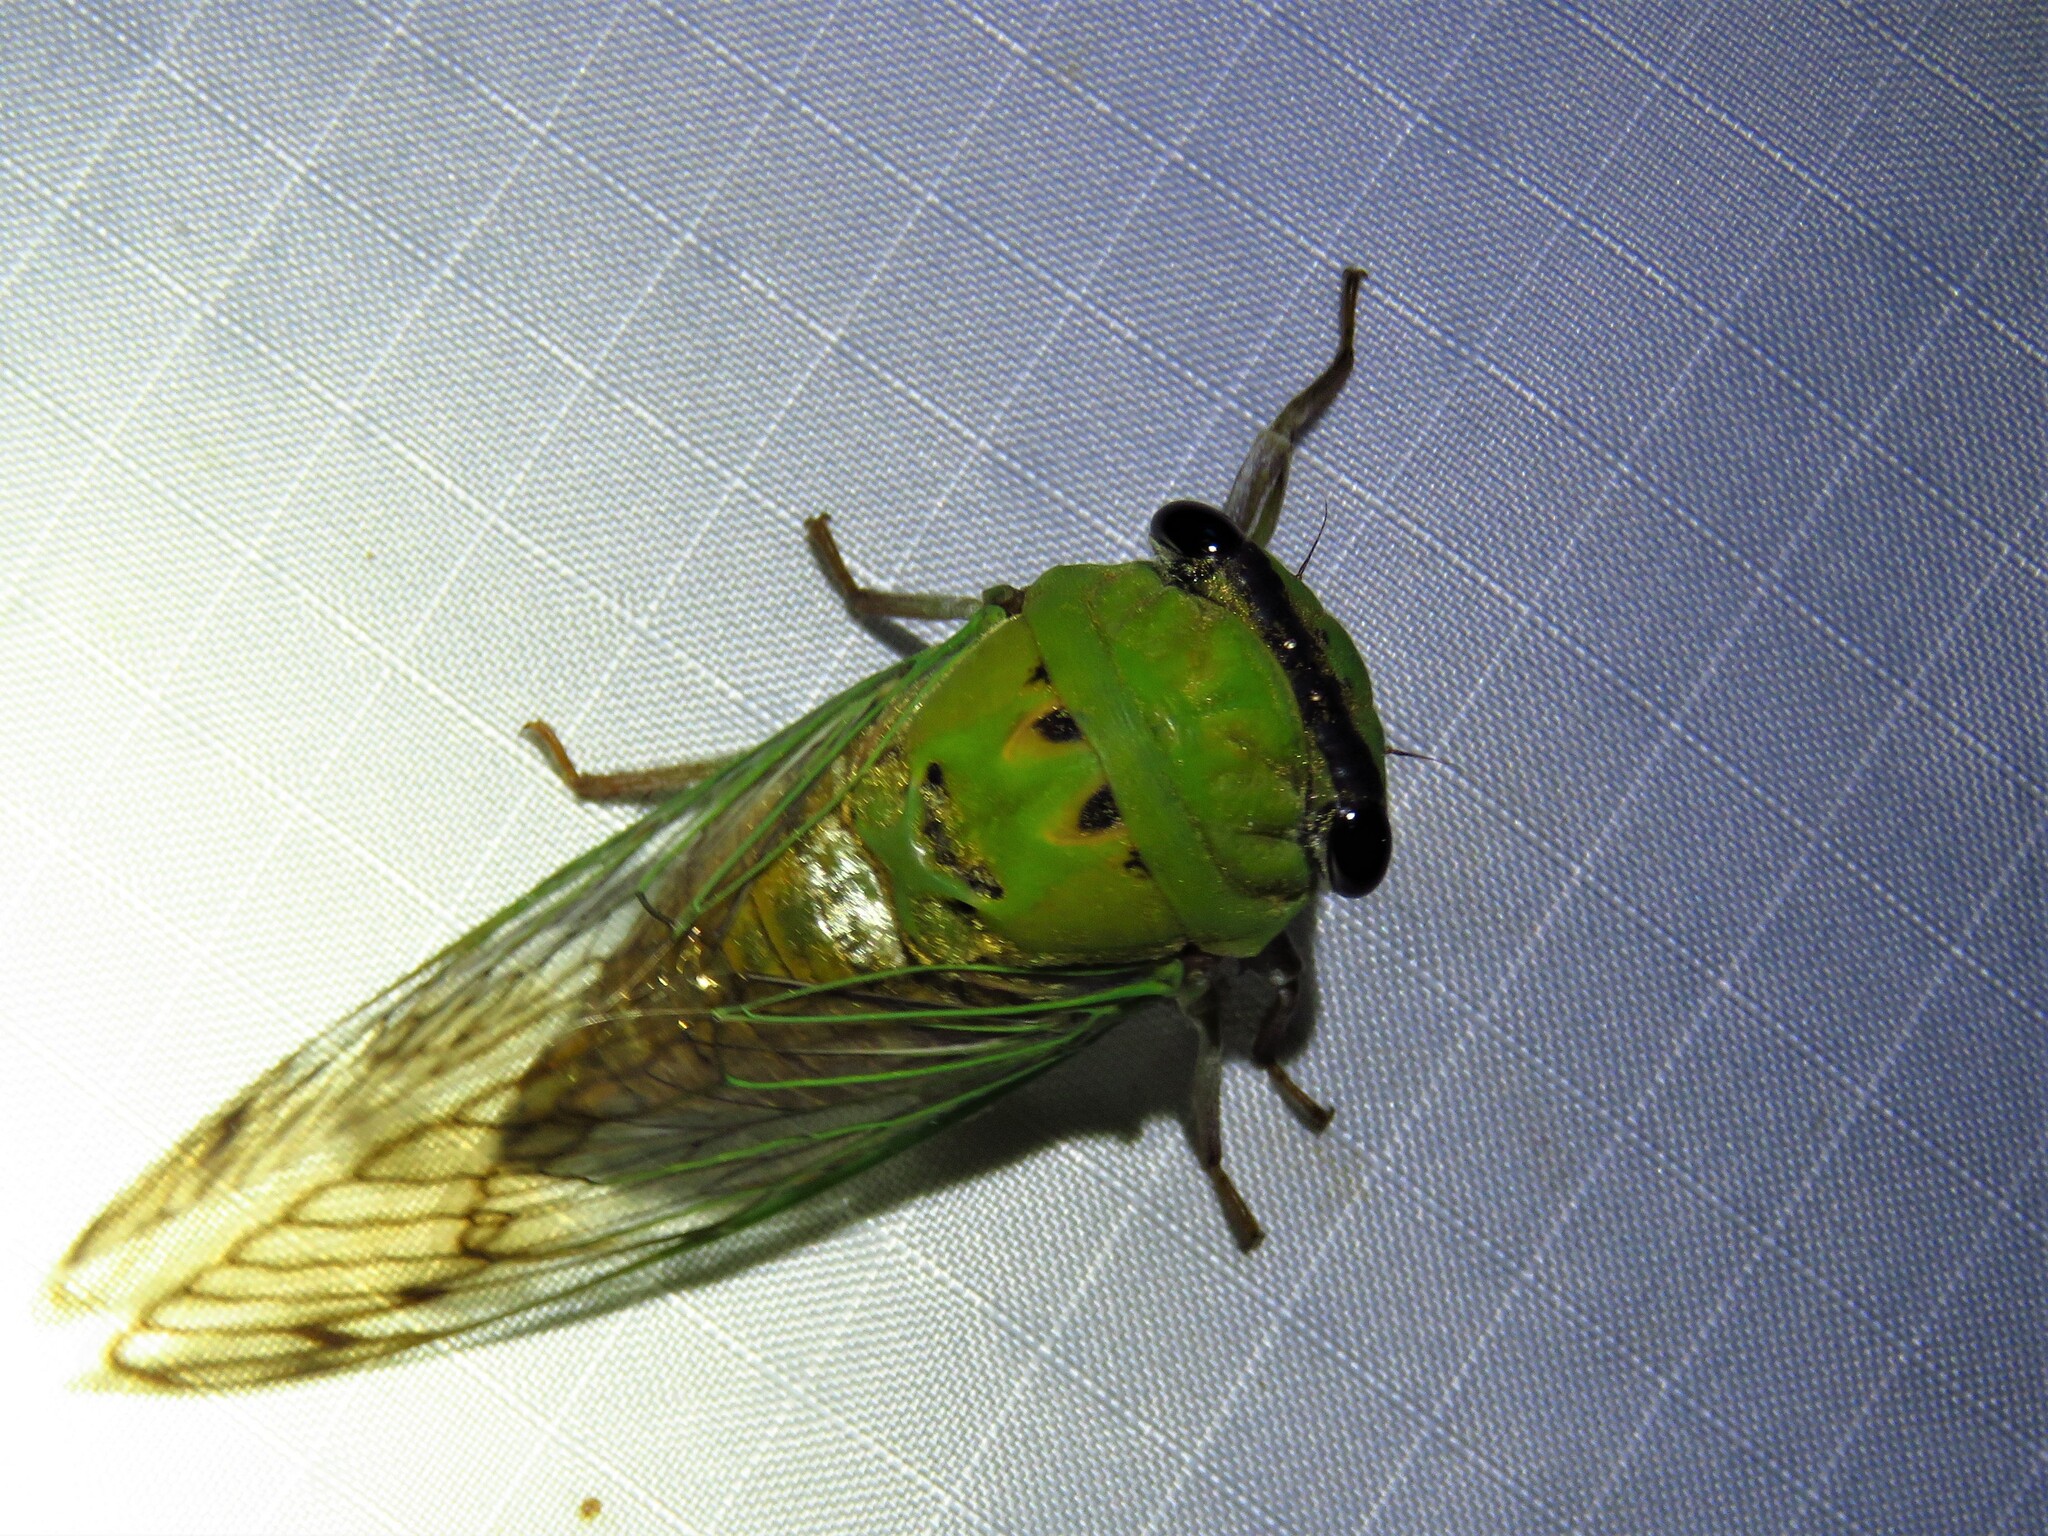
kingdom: Animalia
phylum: Arthropoda
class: Insecta
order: Hemiptera
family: Cicadidae
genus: Neotibicen
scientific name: Neotibicen superbus
